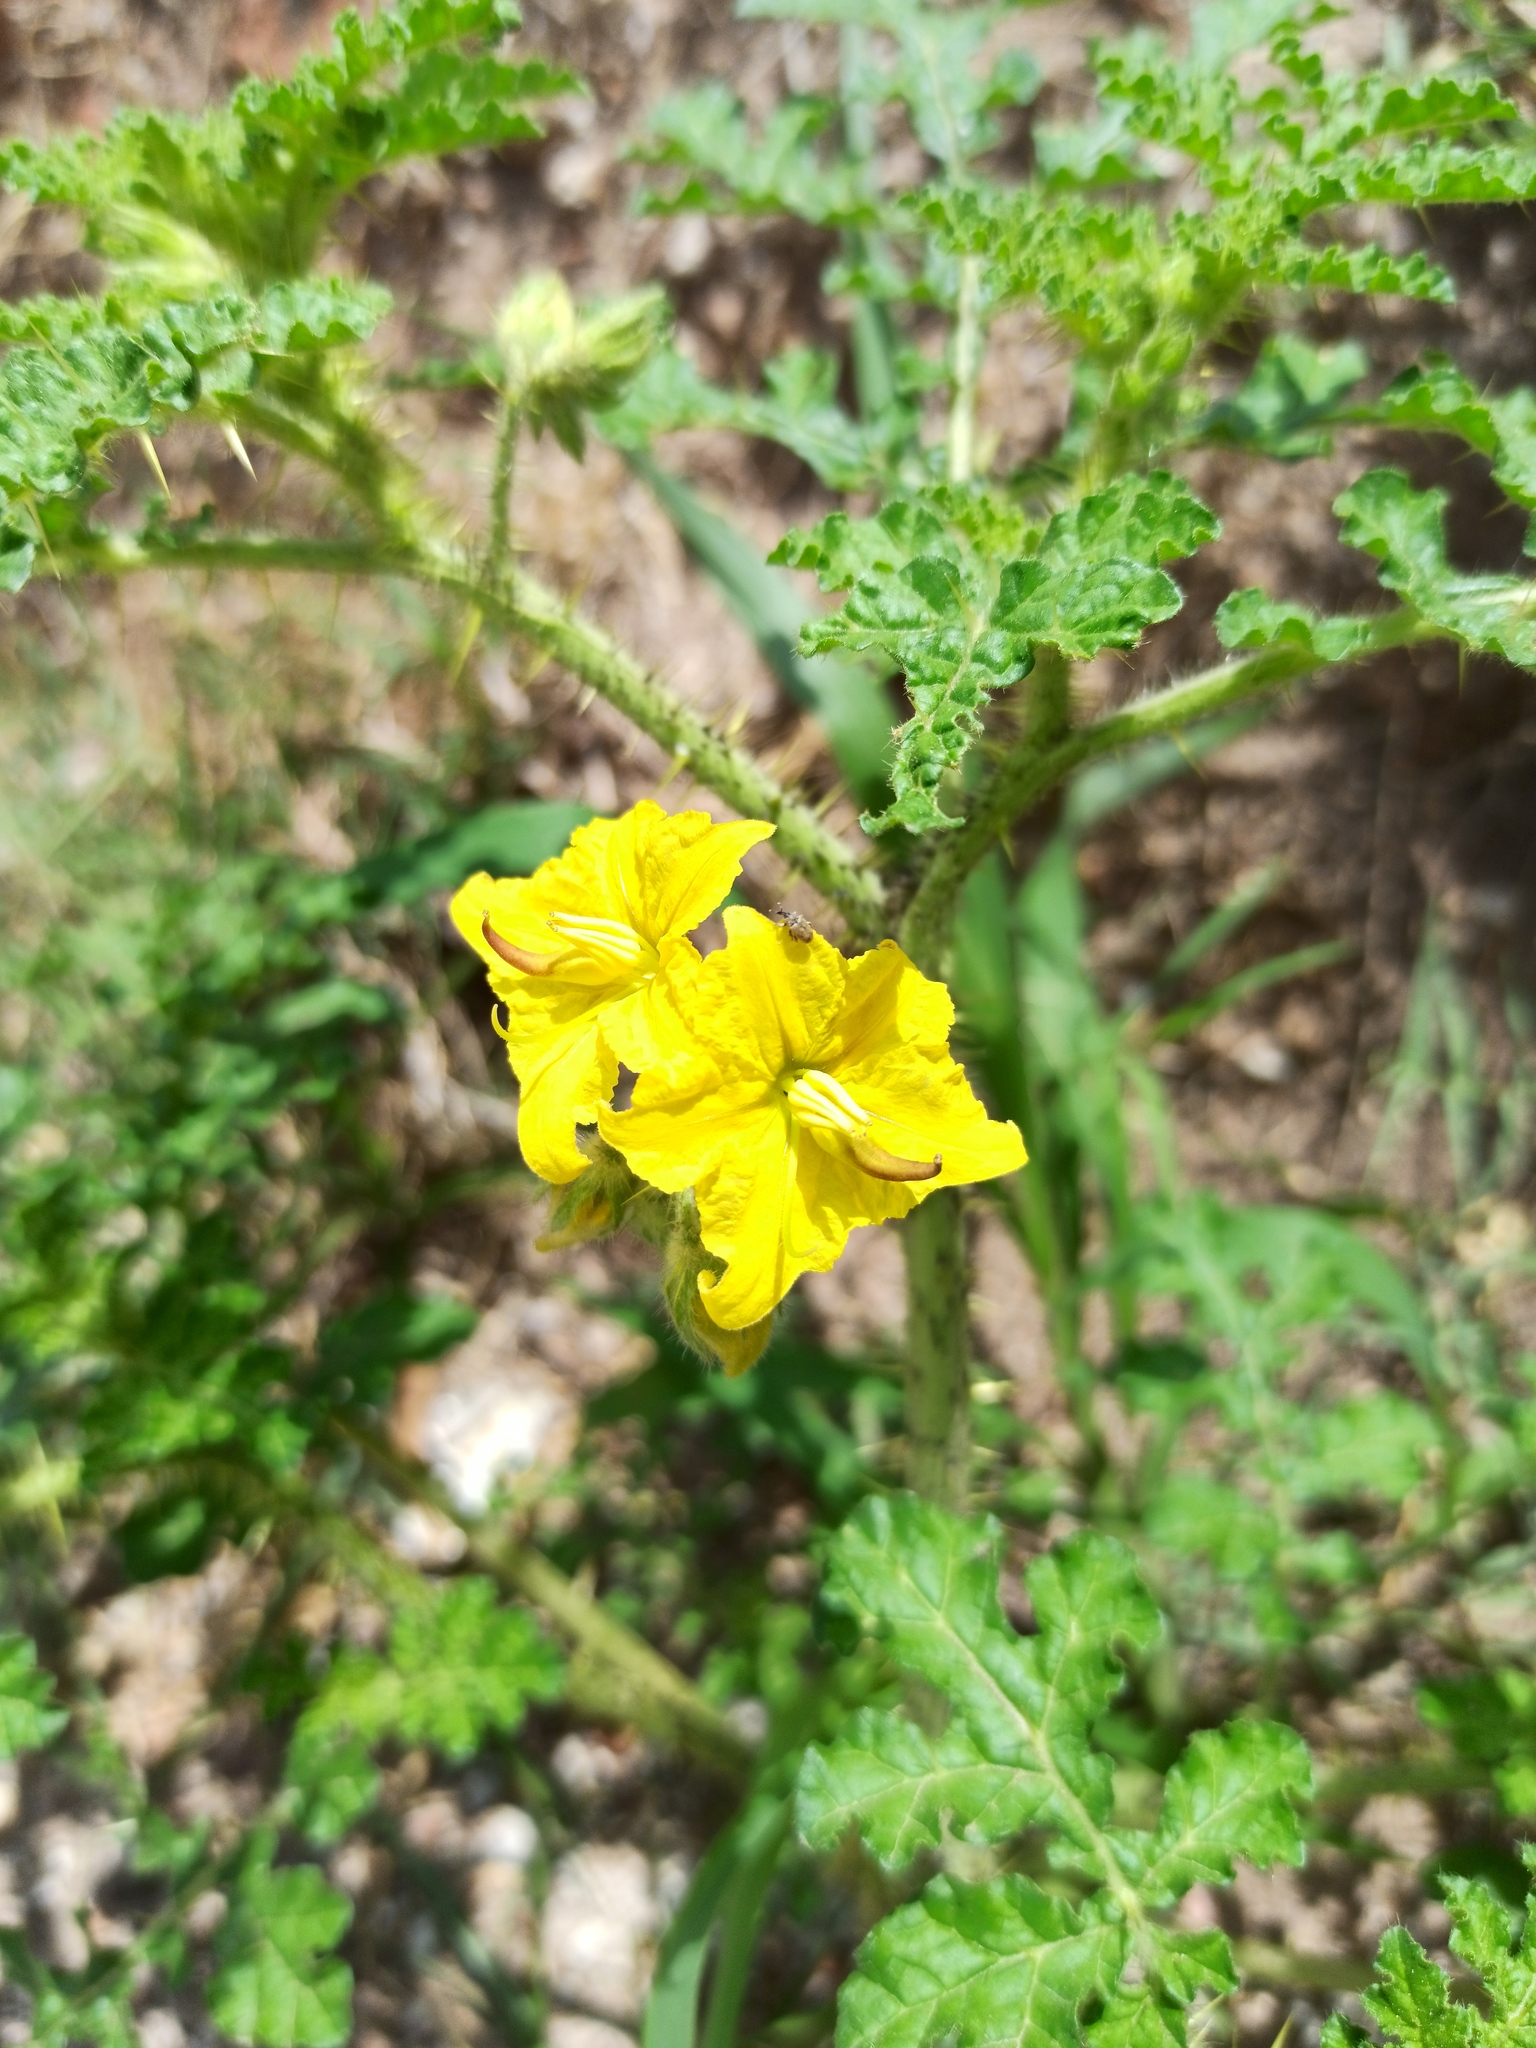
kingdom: Plantae
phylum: Tracheophyta
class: Magnoliopsida
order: Solanales
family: Solanaceae
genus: Solanum
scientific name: Solanum angustifolium
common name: Buffalobur nightshade
